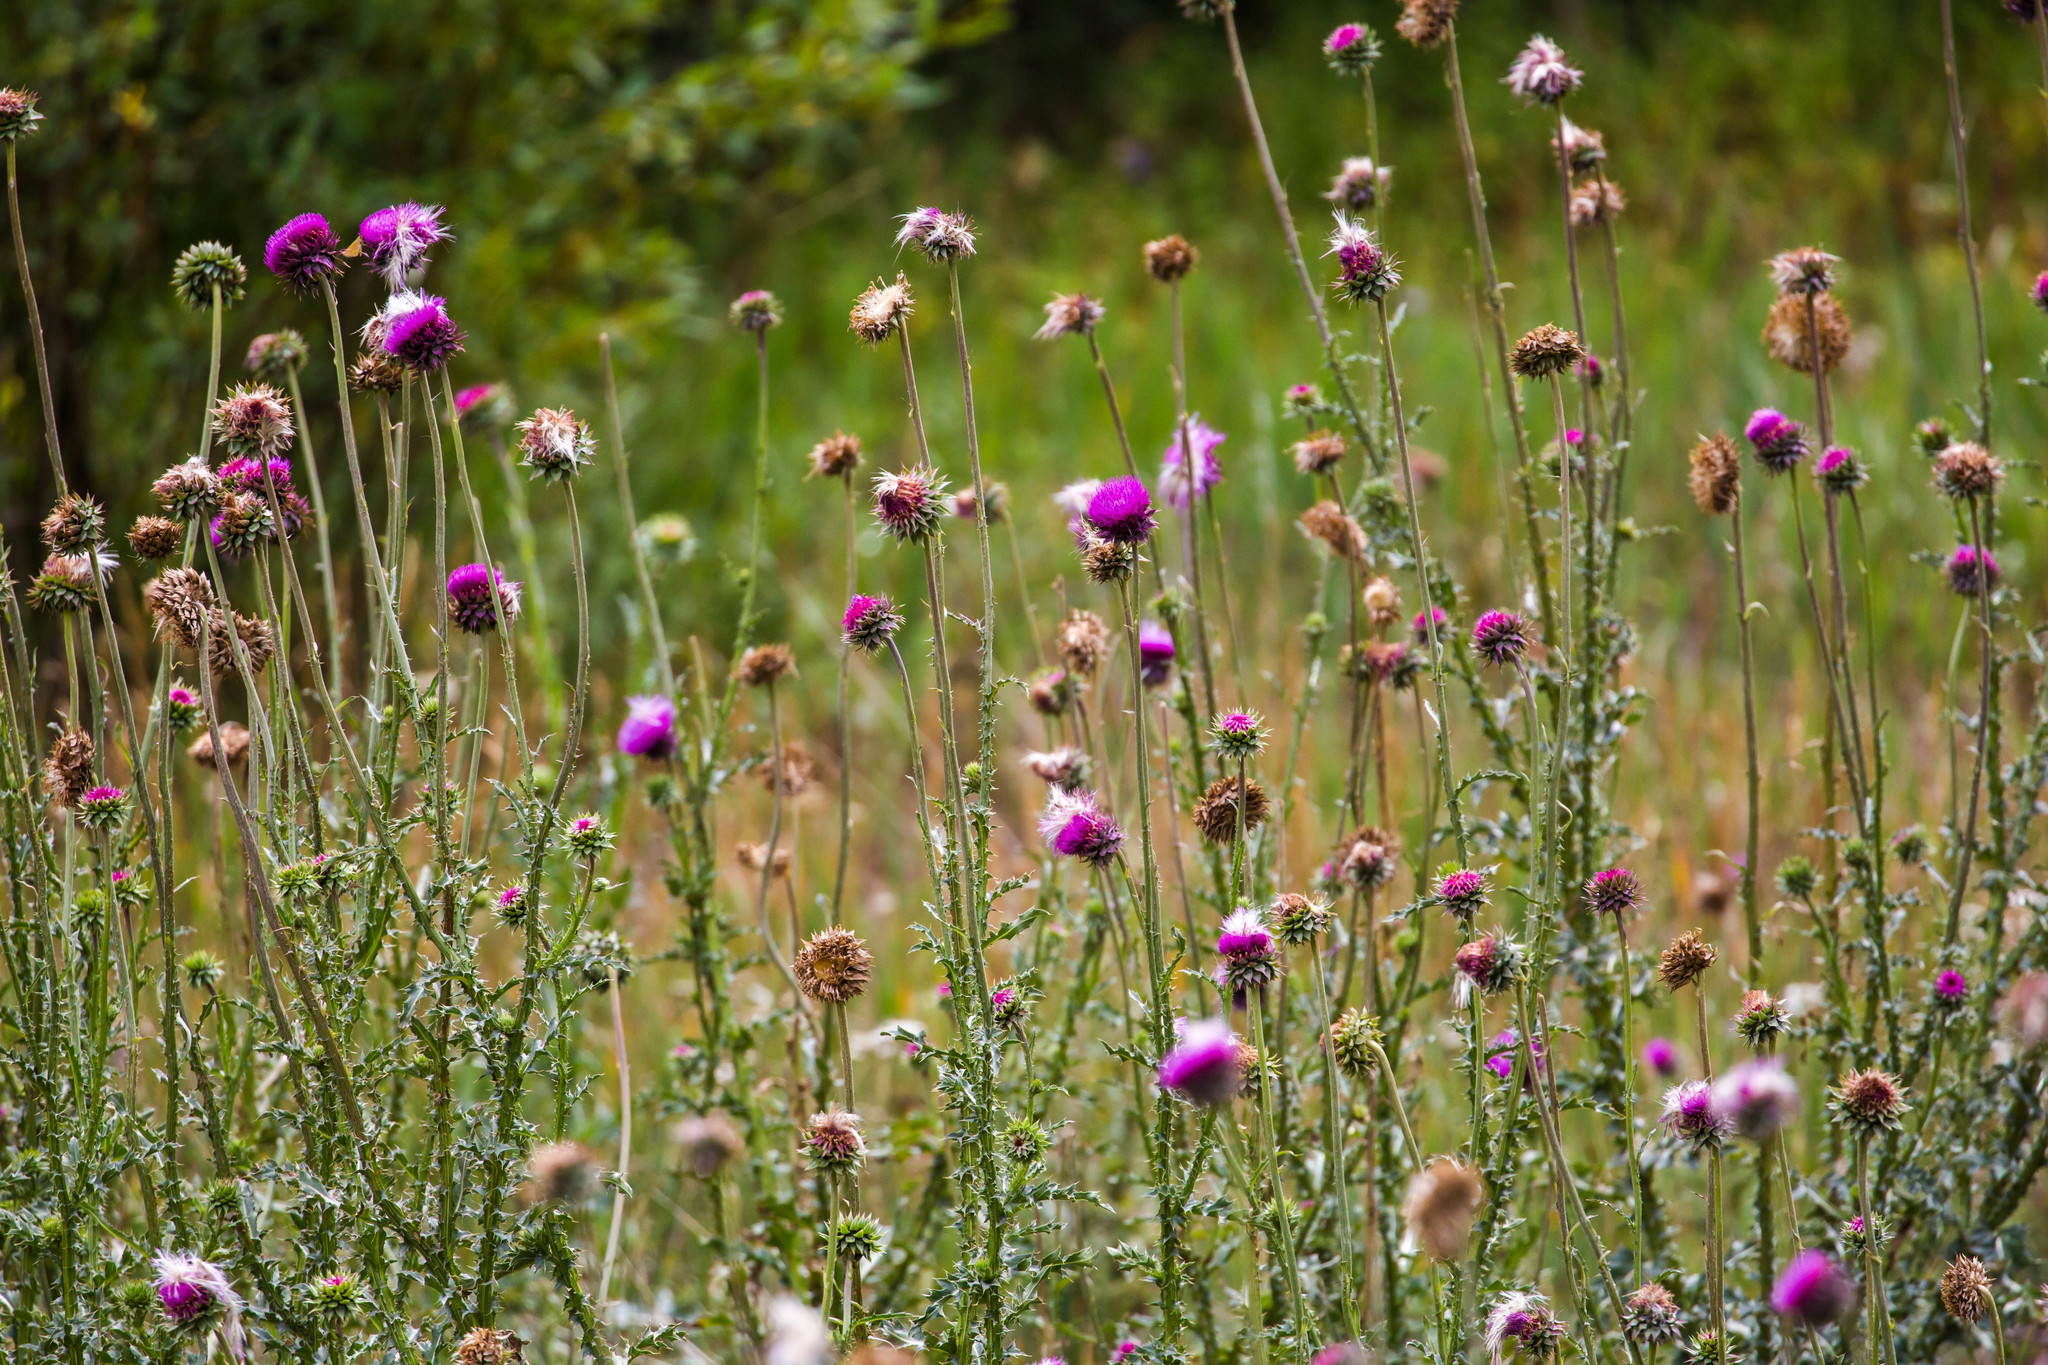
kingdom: Plantae
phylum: Tracheophyta
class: Magnoliopsida
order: Asterales
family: Asteraceae
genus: Carduus
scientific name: Carduus nutans
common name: Musk thistle
